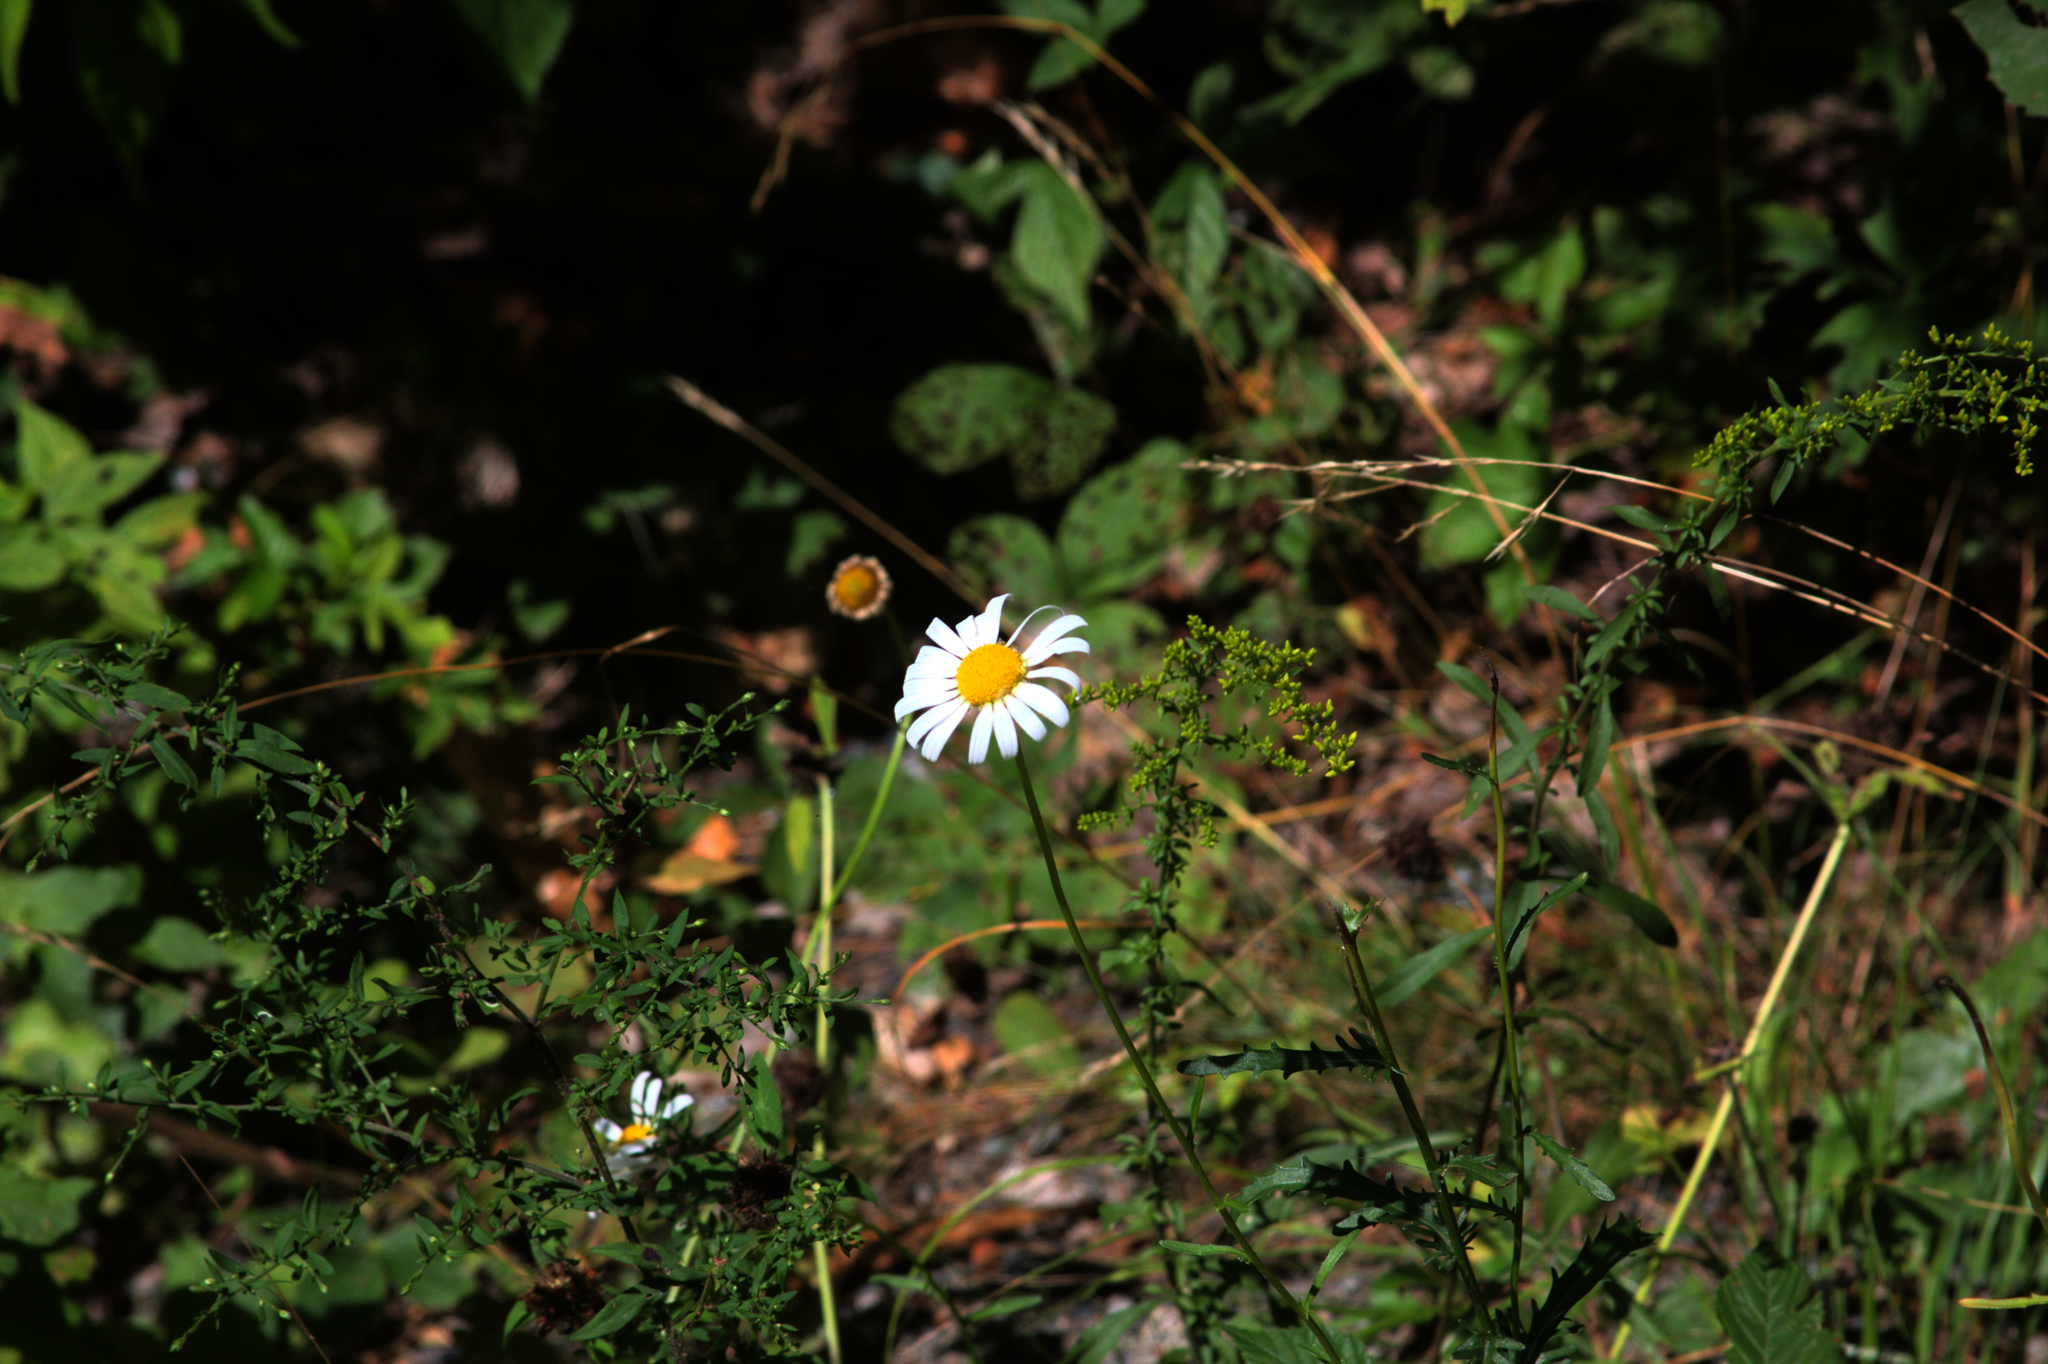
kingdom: Plantae
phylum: Tracheophyta
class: Magnoliopsida
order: Asterales
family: Asteraceae
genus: Tripleurospermum
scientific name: Tripleurospermum inodorum
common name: Scentless mayweed
